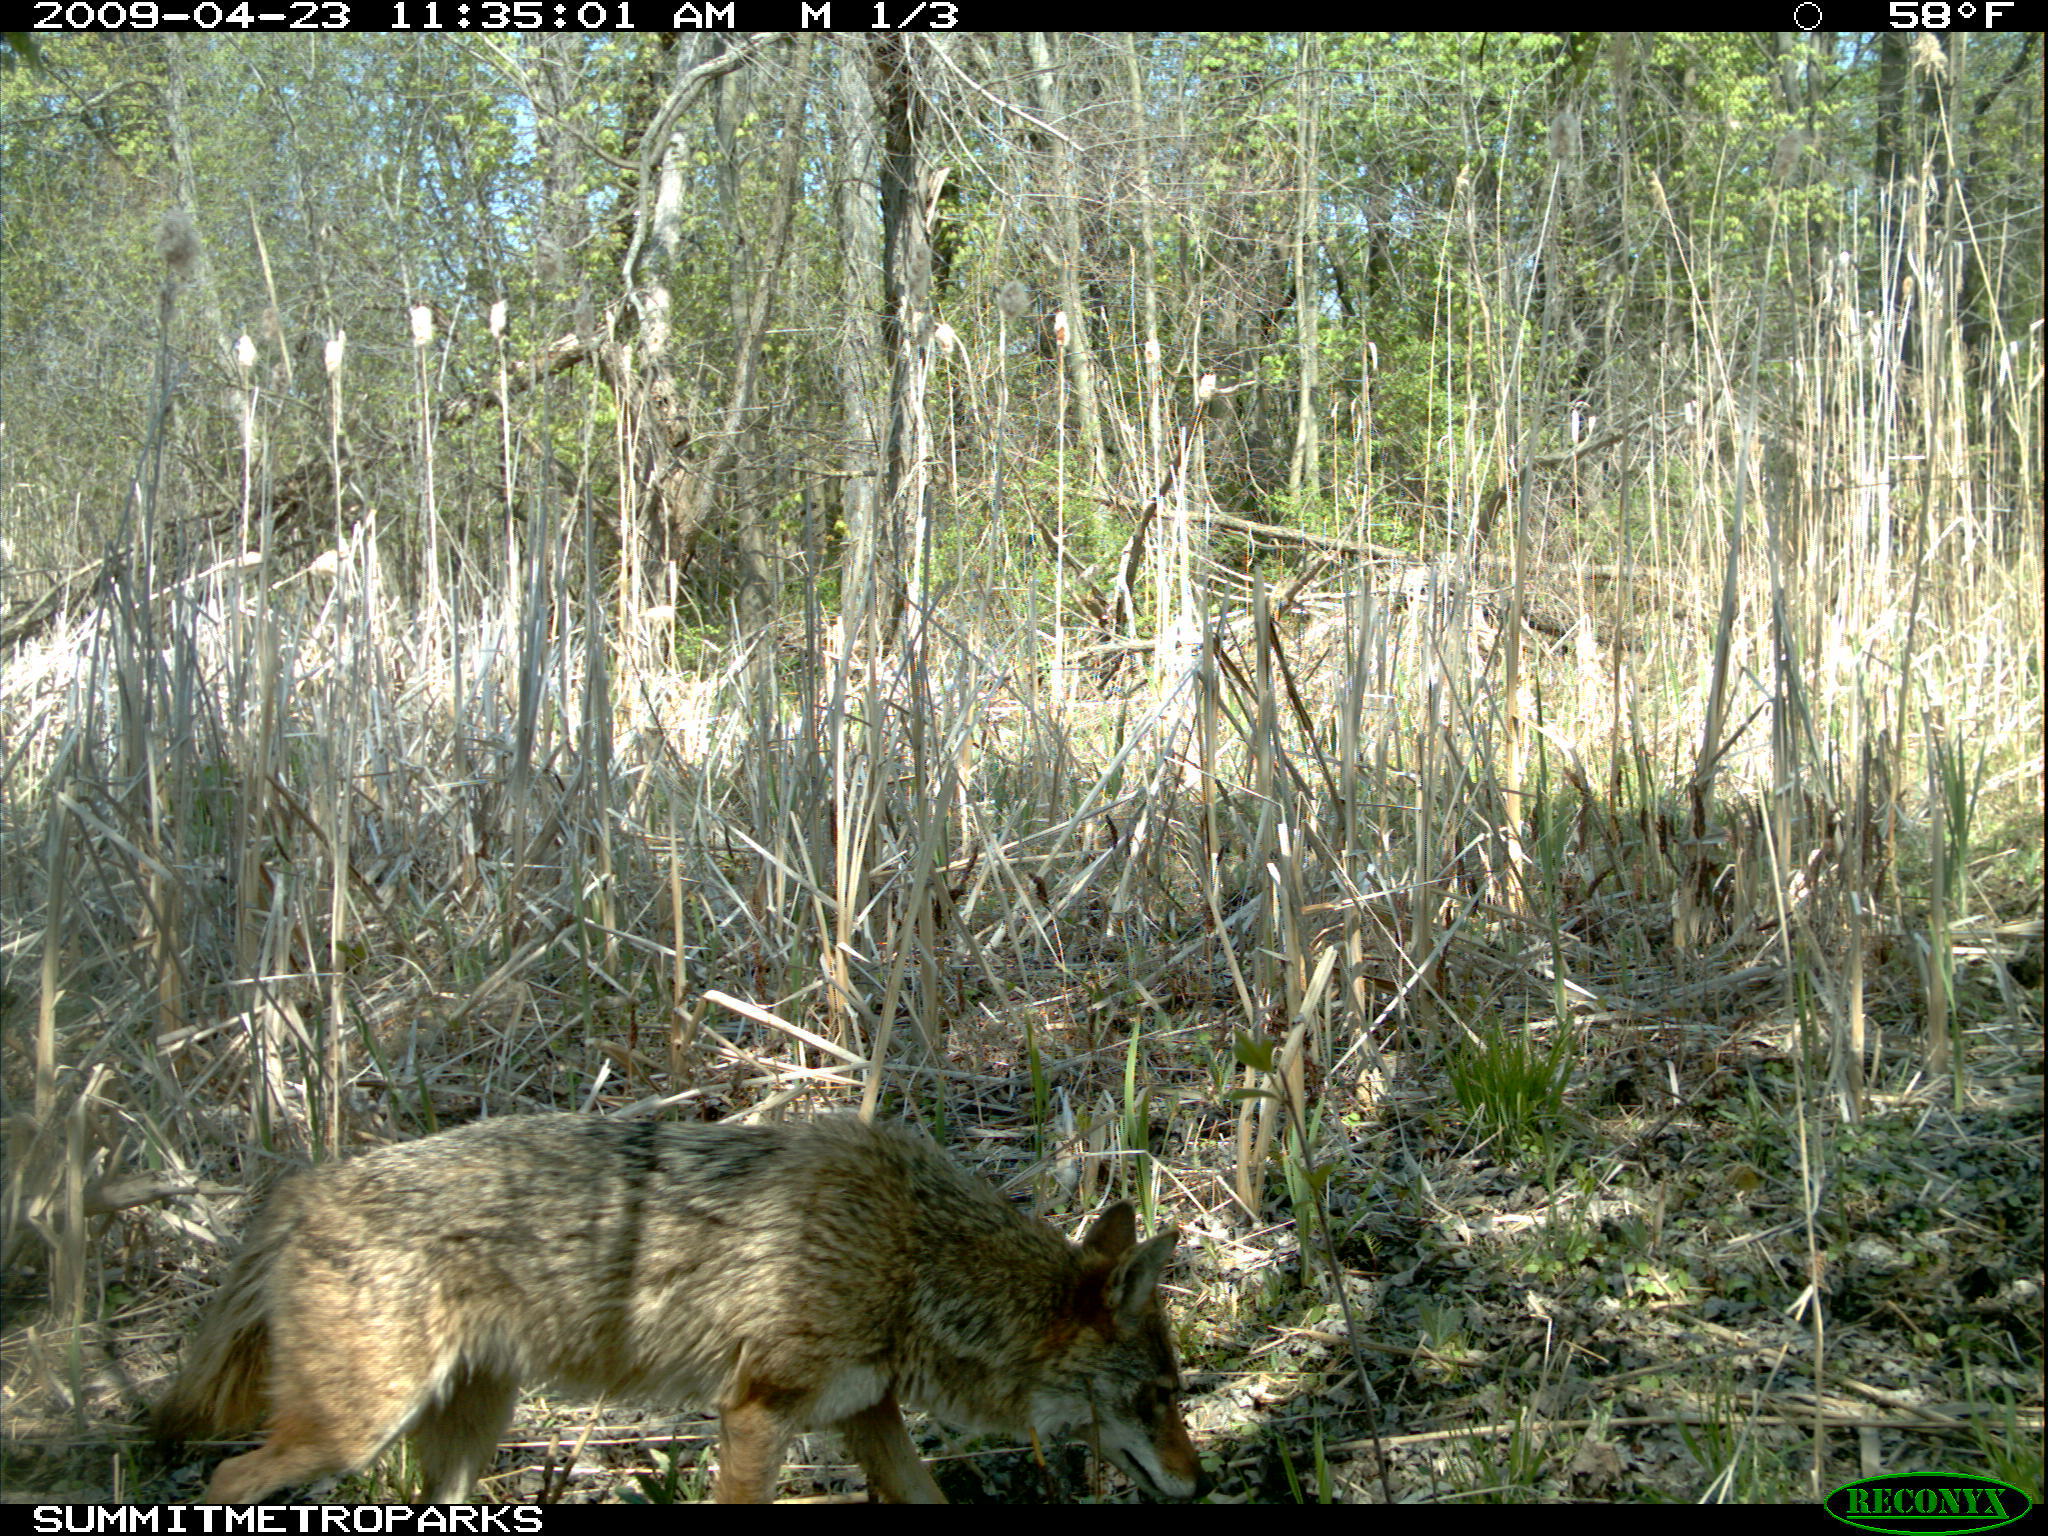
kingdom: Animalia
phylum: Chordata
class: Mammalia
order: Carnivora
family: Canidae
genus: Canis
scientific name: Canis latrans
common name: Coyote
